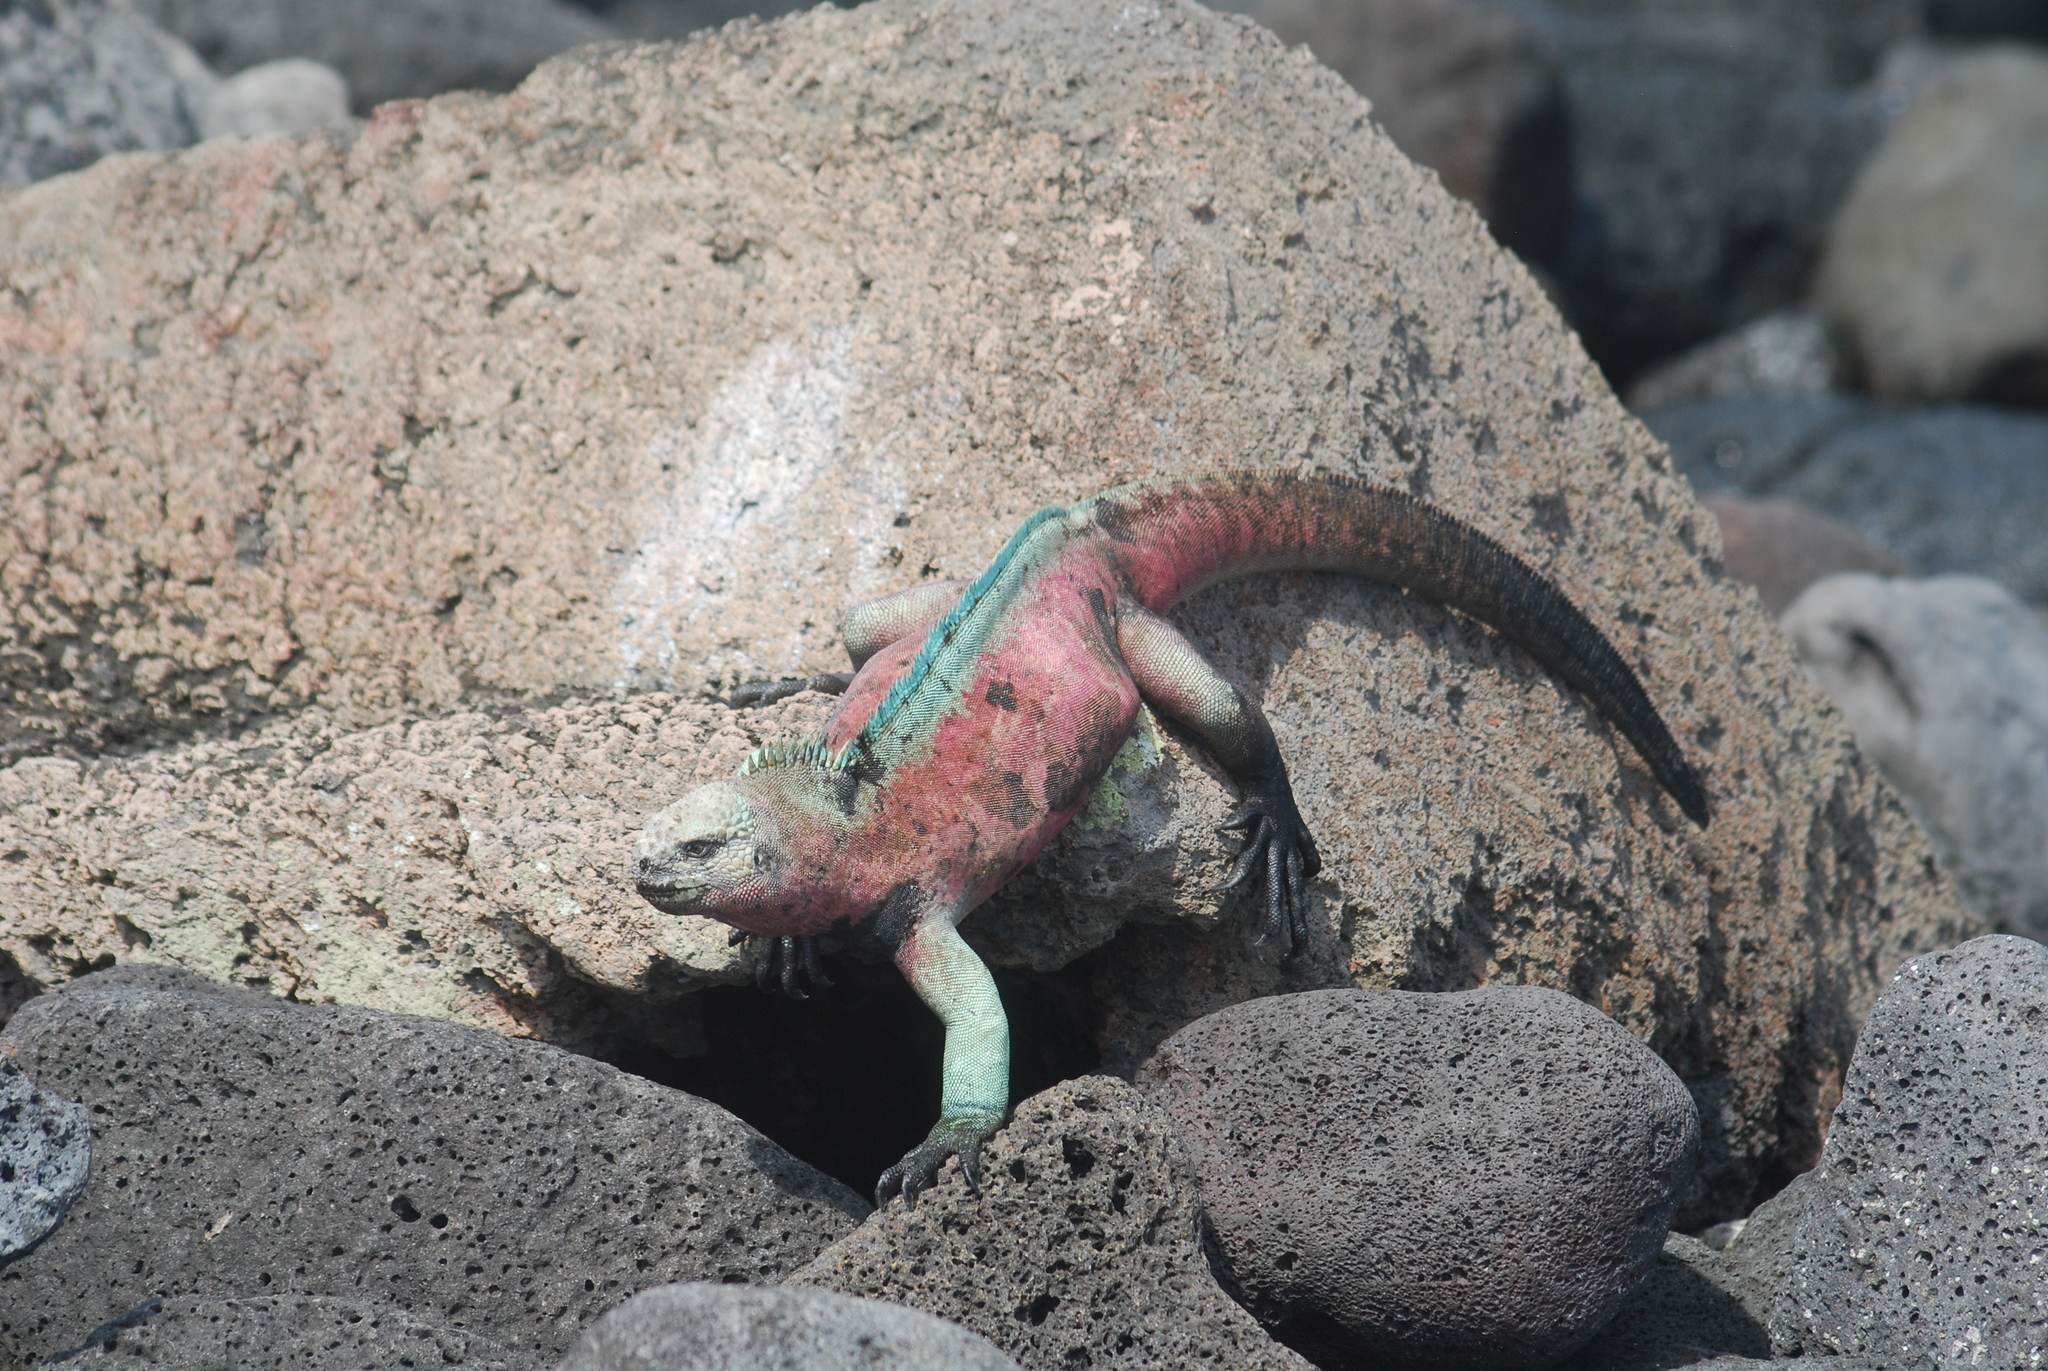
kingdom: Animalia
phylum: Chordata
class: Squamata
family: Iguanidae
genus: Amblyrhynchus
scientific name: Amblyrhynchus cristatus
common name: Marine iguana
